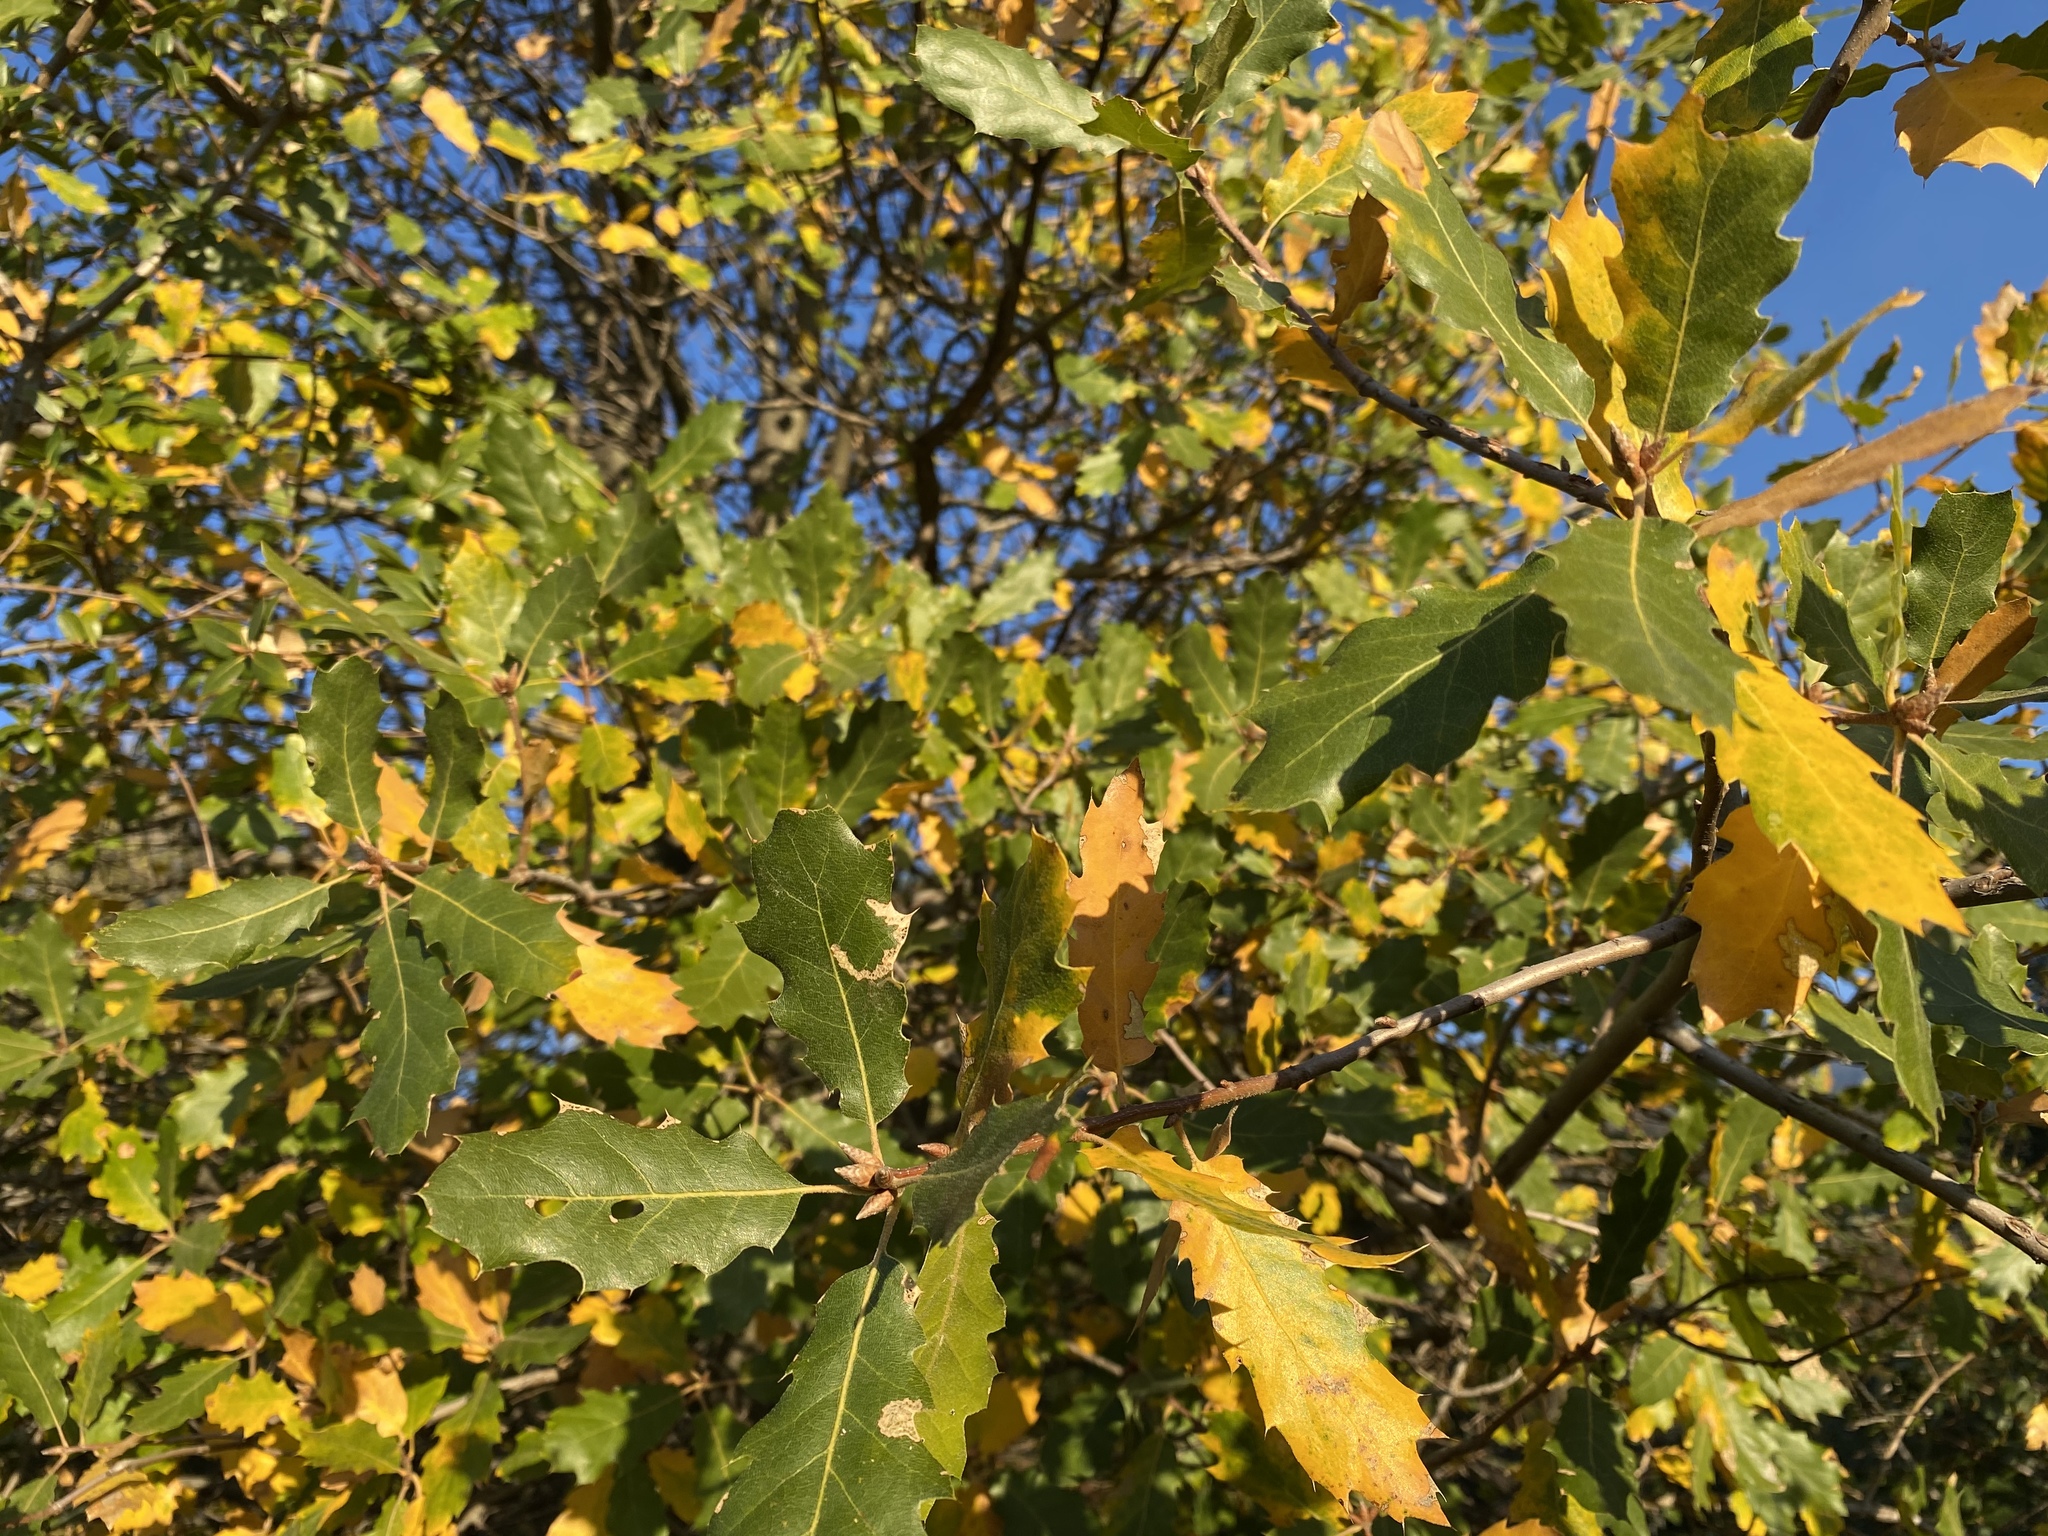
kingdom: Plantae
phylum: Tracheophyta
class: Magnoliopsida
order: Fagales
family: Fagaceae
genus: Quercus
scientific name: Quercus morehus
